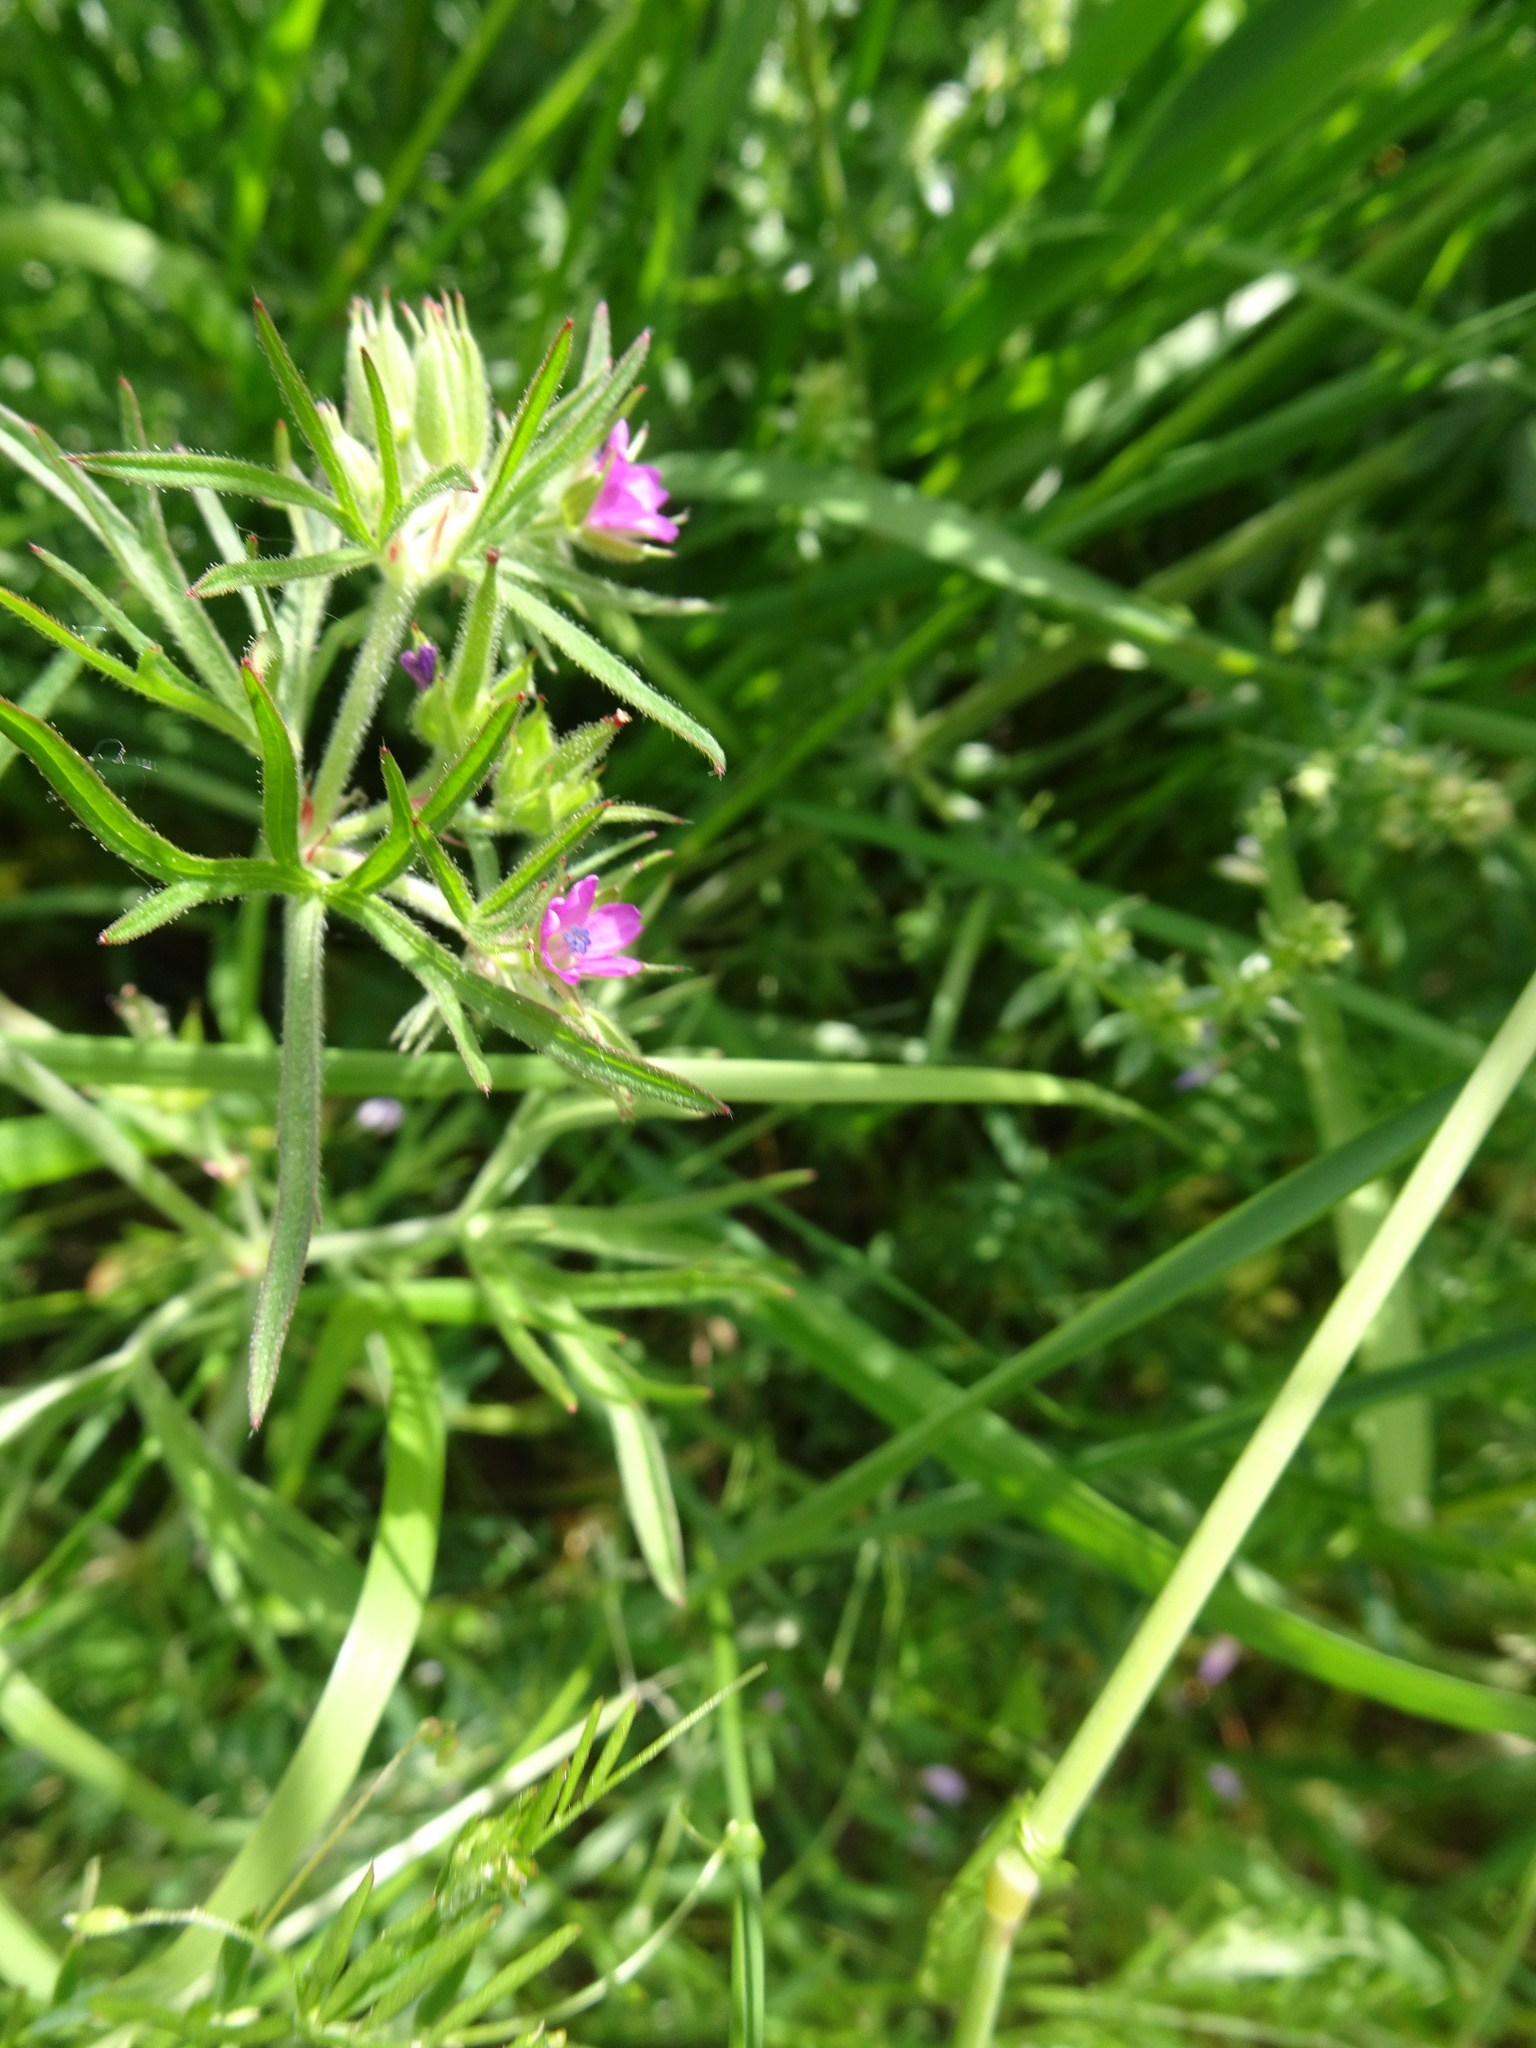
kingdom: Plantae
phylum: Tracheophyta
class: Magnoliopsida
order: Geraniales
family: Geraniaceae
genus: Geranium
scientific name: Geranium dissectum
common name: Cut-leaved crane's-bill
